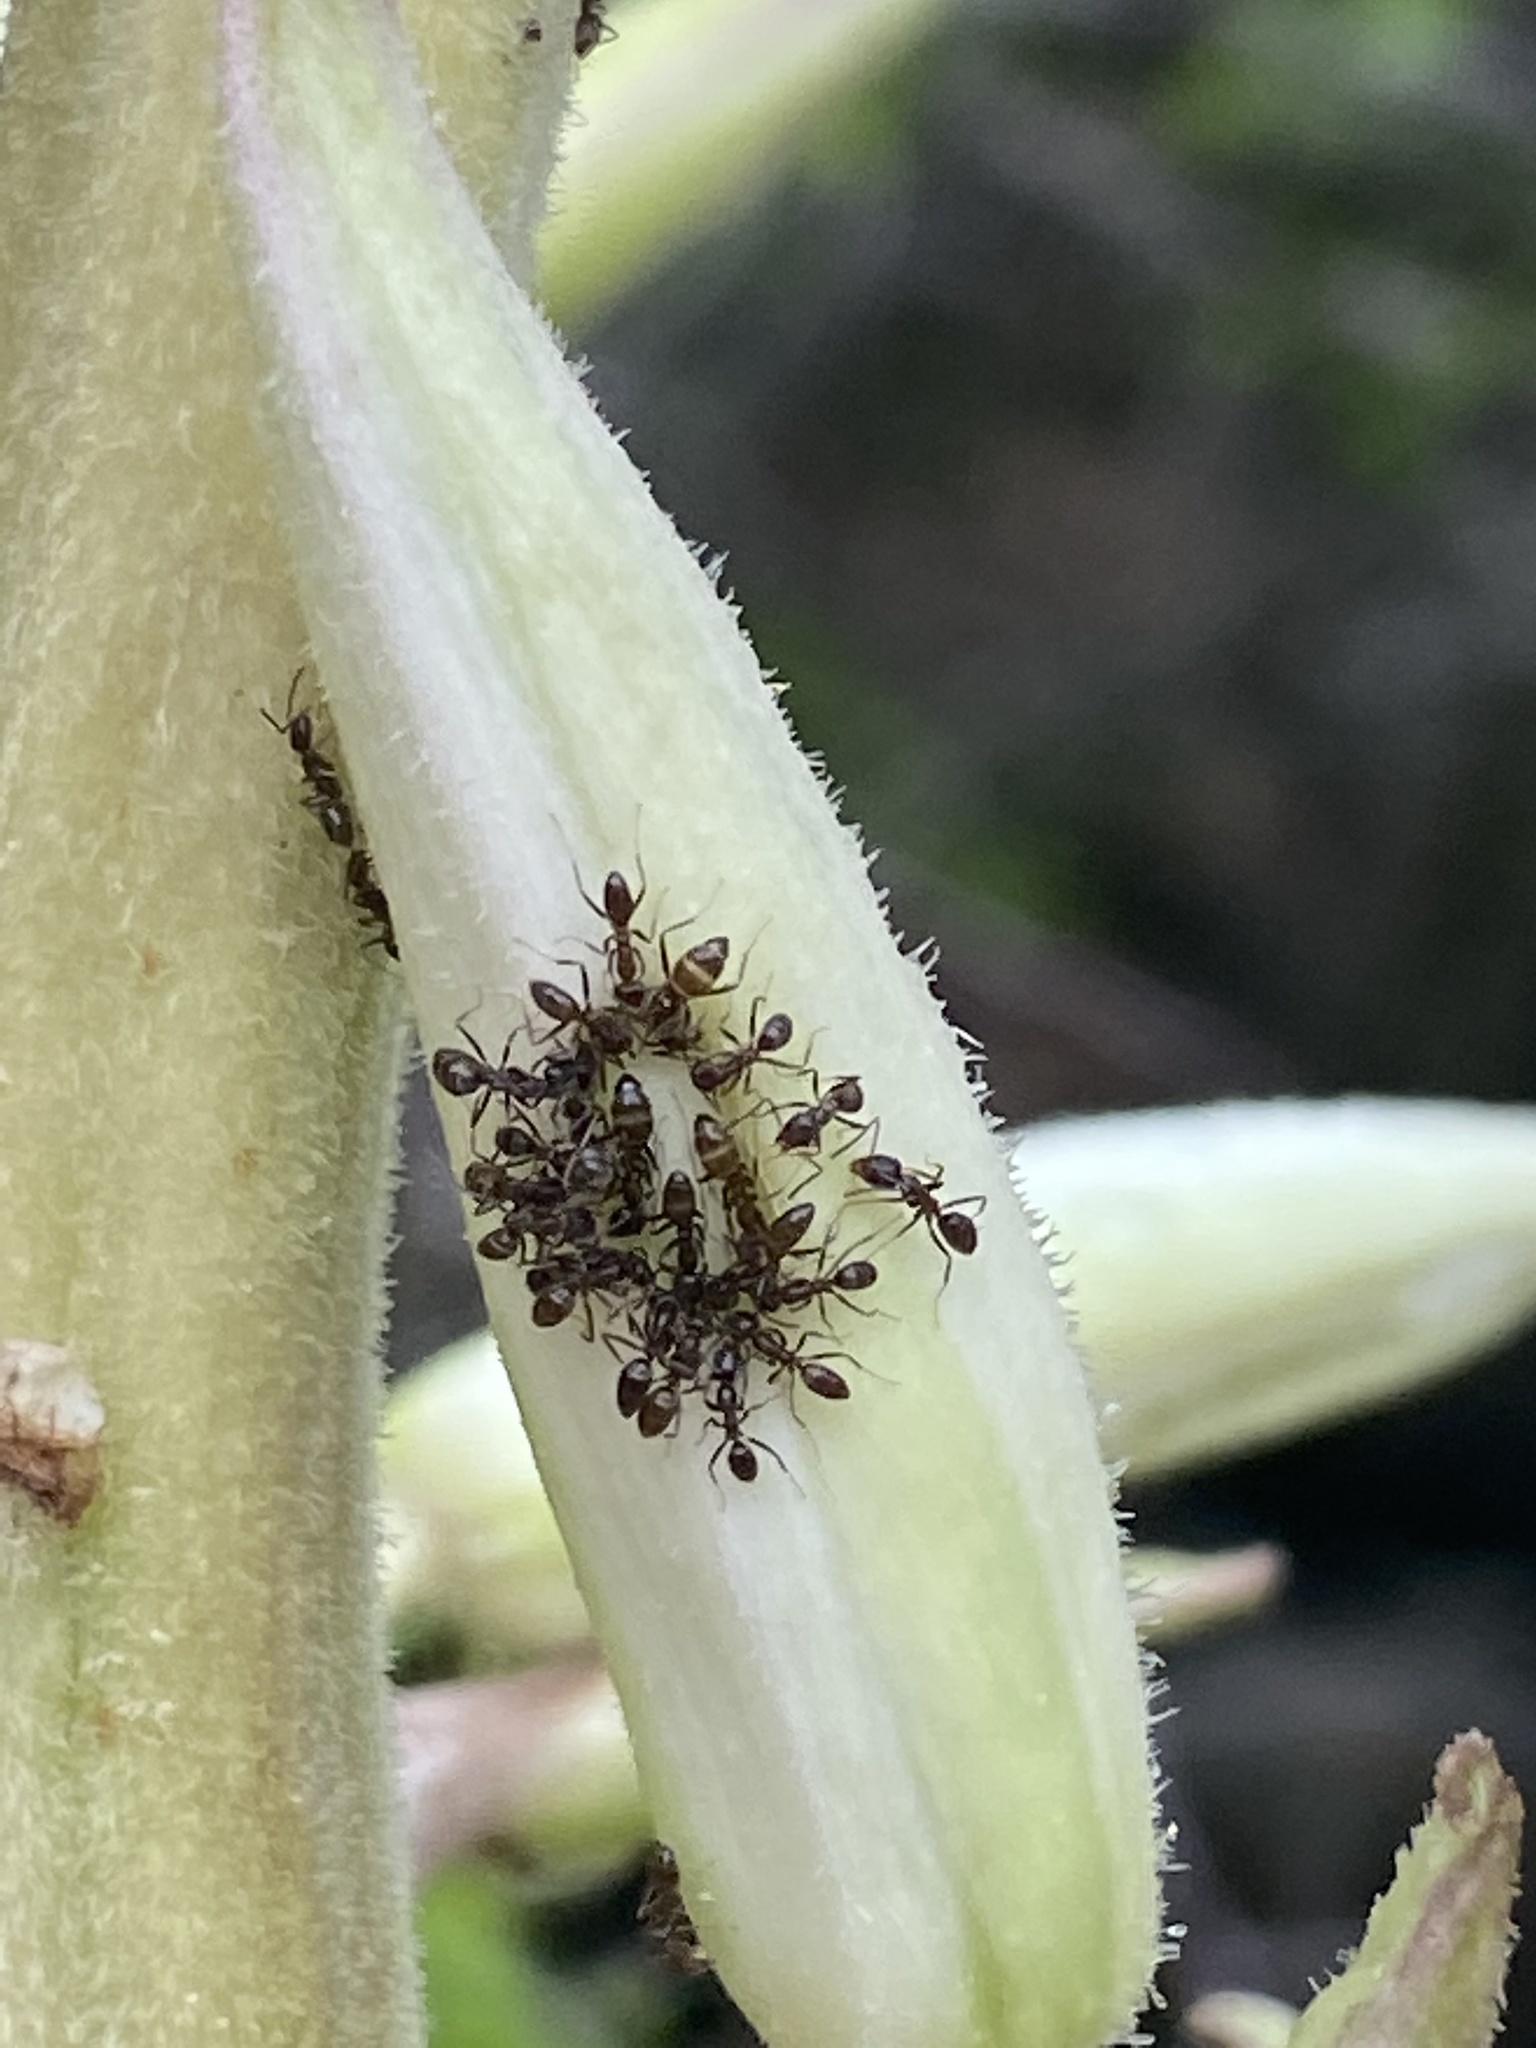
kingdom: Animalia
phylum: Arthropoda
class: Insecta
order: Hymenoptera
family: Formicidae
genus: Linepithema
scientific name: Linepithema humile
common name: Argentine ant
